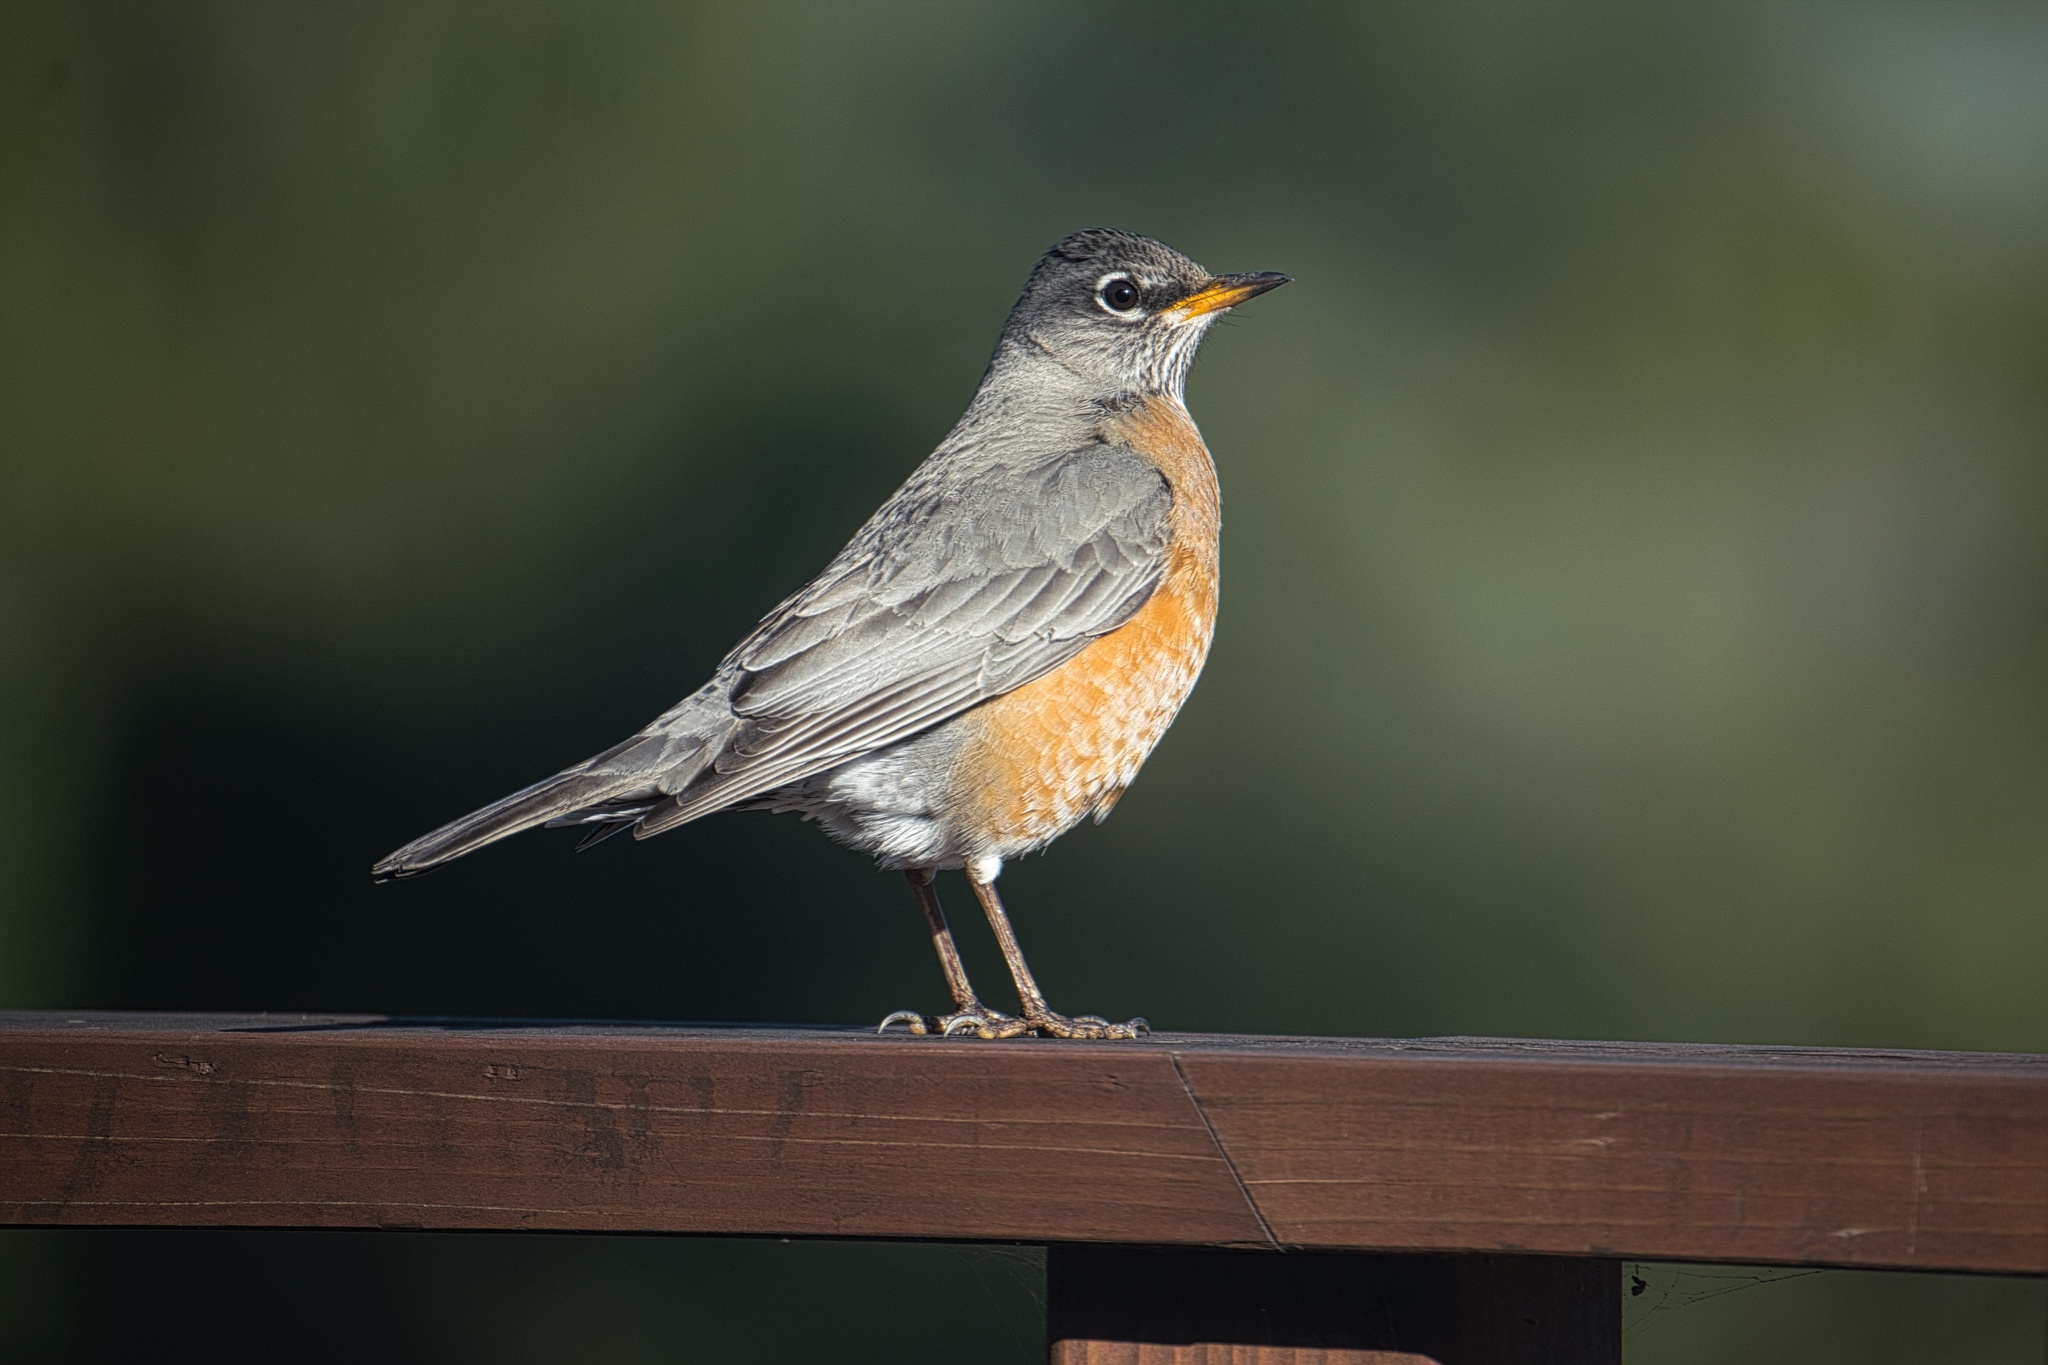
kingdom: Animalia
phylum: Chordata
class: Aves
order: Passeriformes
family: Turdidae
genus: Turdus
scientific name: Turdus migratorius
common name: American robin
